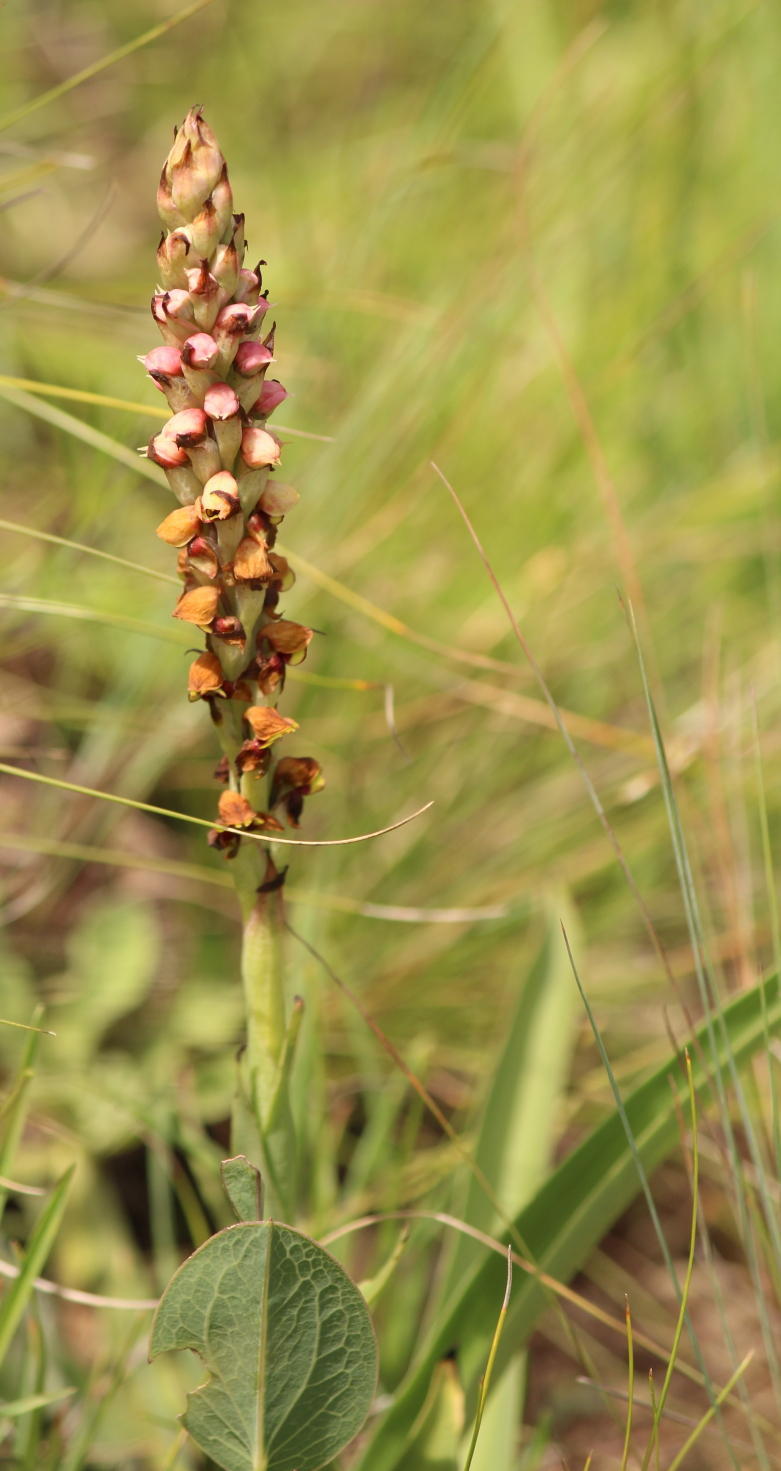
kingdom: Plantae
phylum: Tracheophyta
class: Liliopsida
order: Asparagales
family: Orchidaceae
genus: Disa
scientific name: Disa versicolor
